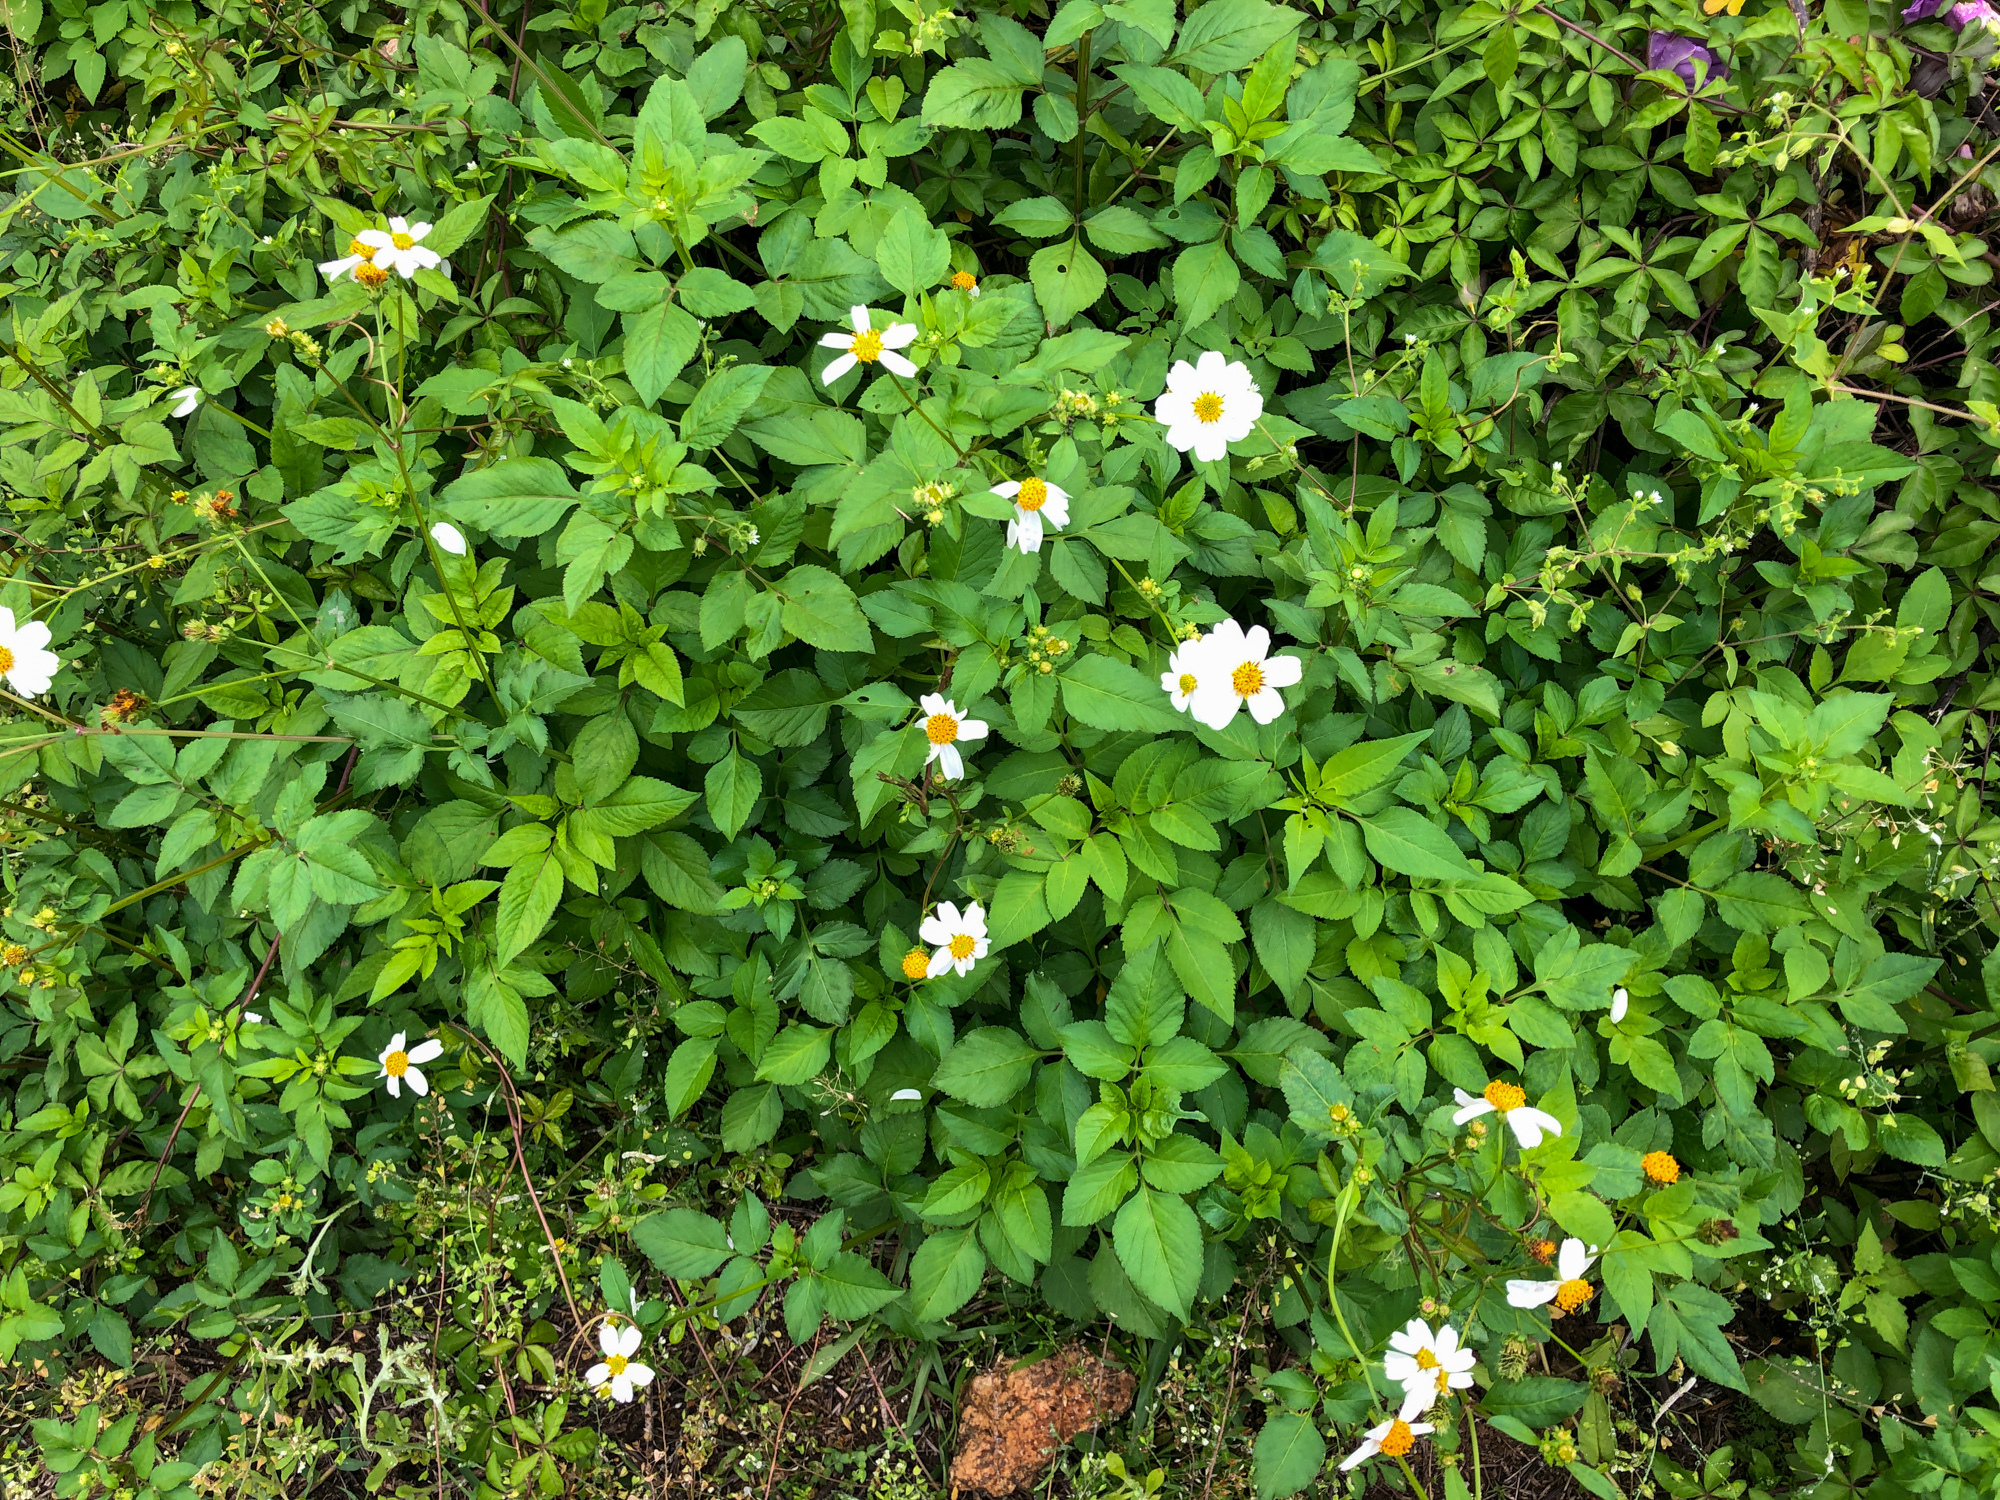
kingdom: Plantae
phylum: Tracheophyta
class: Magnoliopsida
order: Asterales
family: Asteraceae
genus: Bidens
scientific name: Bidens alba
